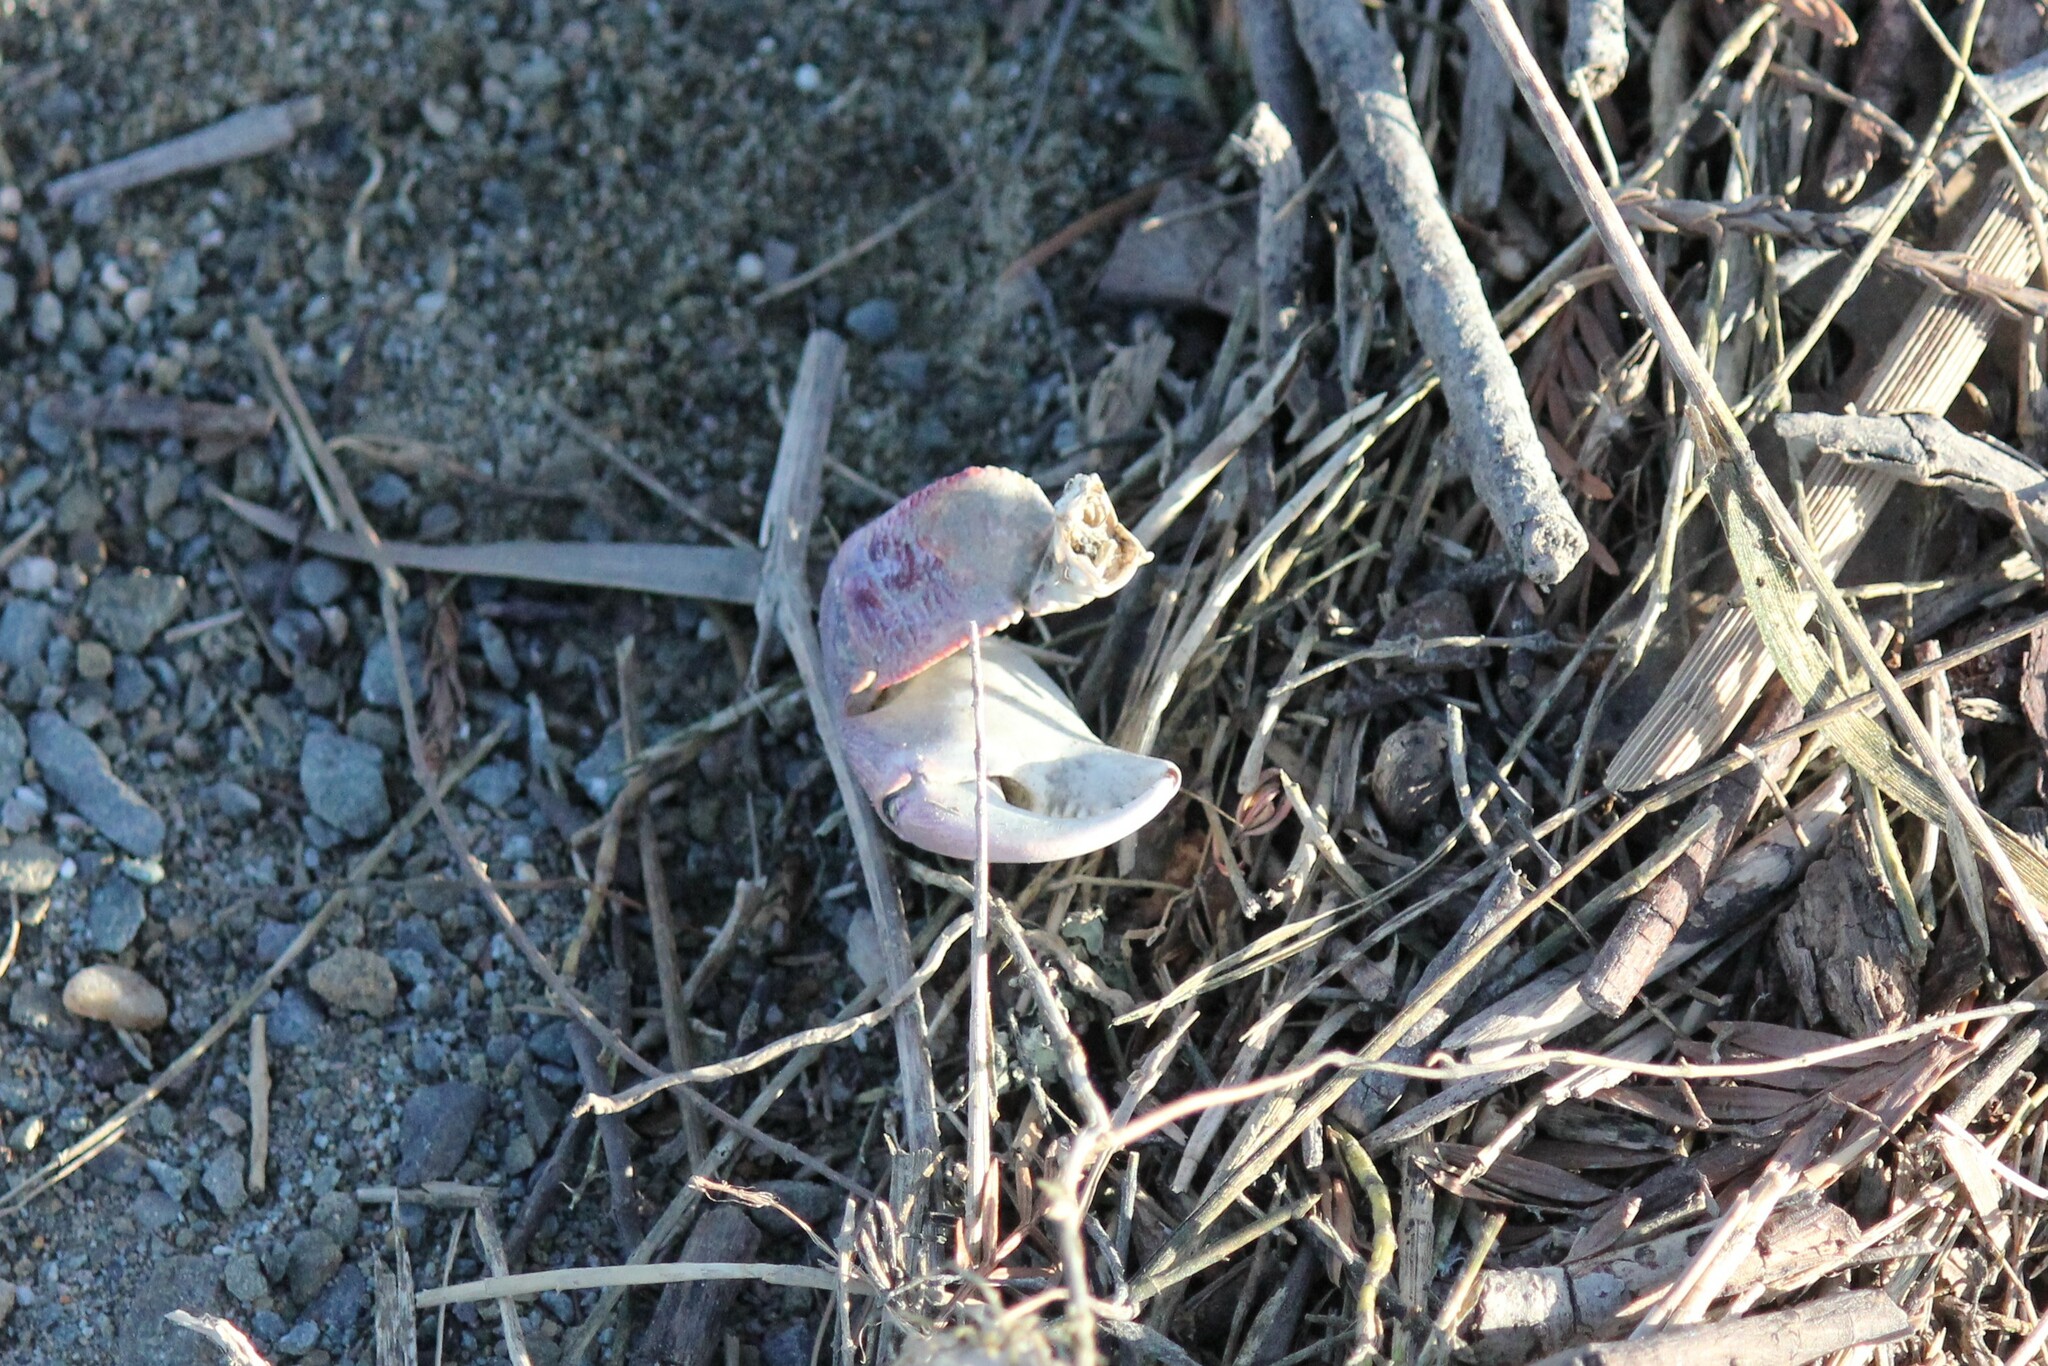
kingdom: Animalia
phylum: Arthropoda
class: Malacostraca
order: Decapoda
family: Grapsidae
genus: Pachygrapsus
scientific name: Pachygrapsus crassipes
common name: Striped shore crab
